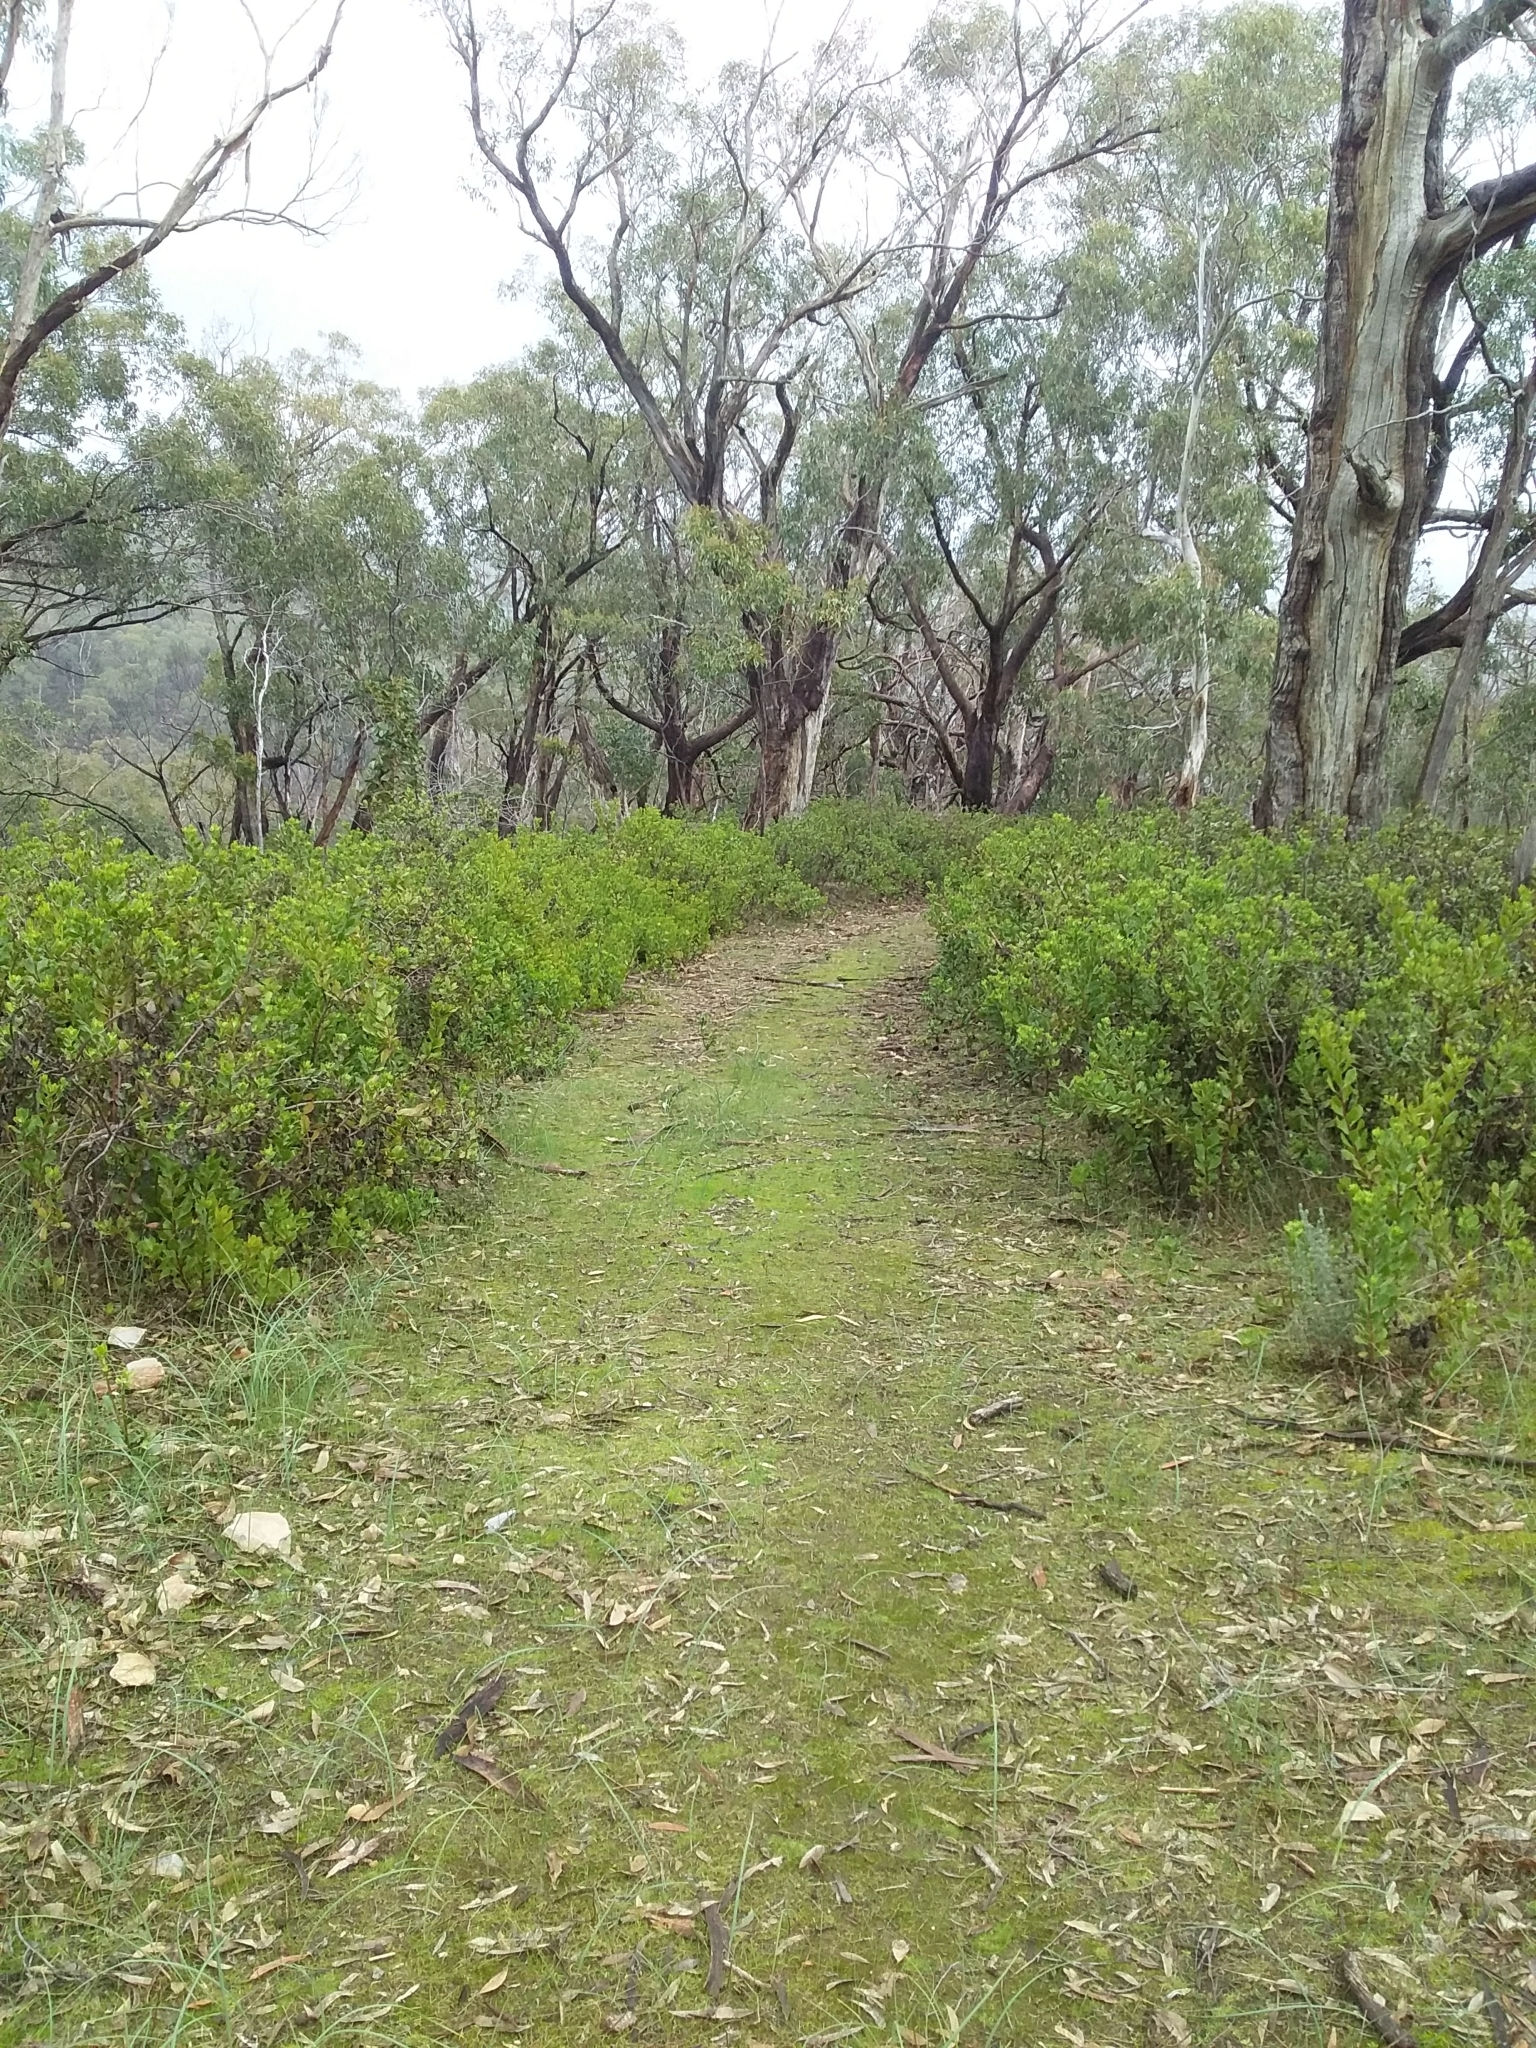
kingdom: Plantae
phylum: Tracheophyta
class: Magnoliopsida
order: Asterales
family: Asteraceae
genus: Osteospermum
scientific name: Osteospermum moniliferum
